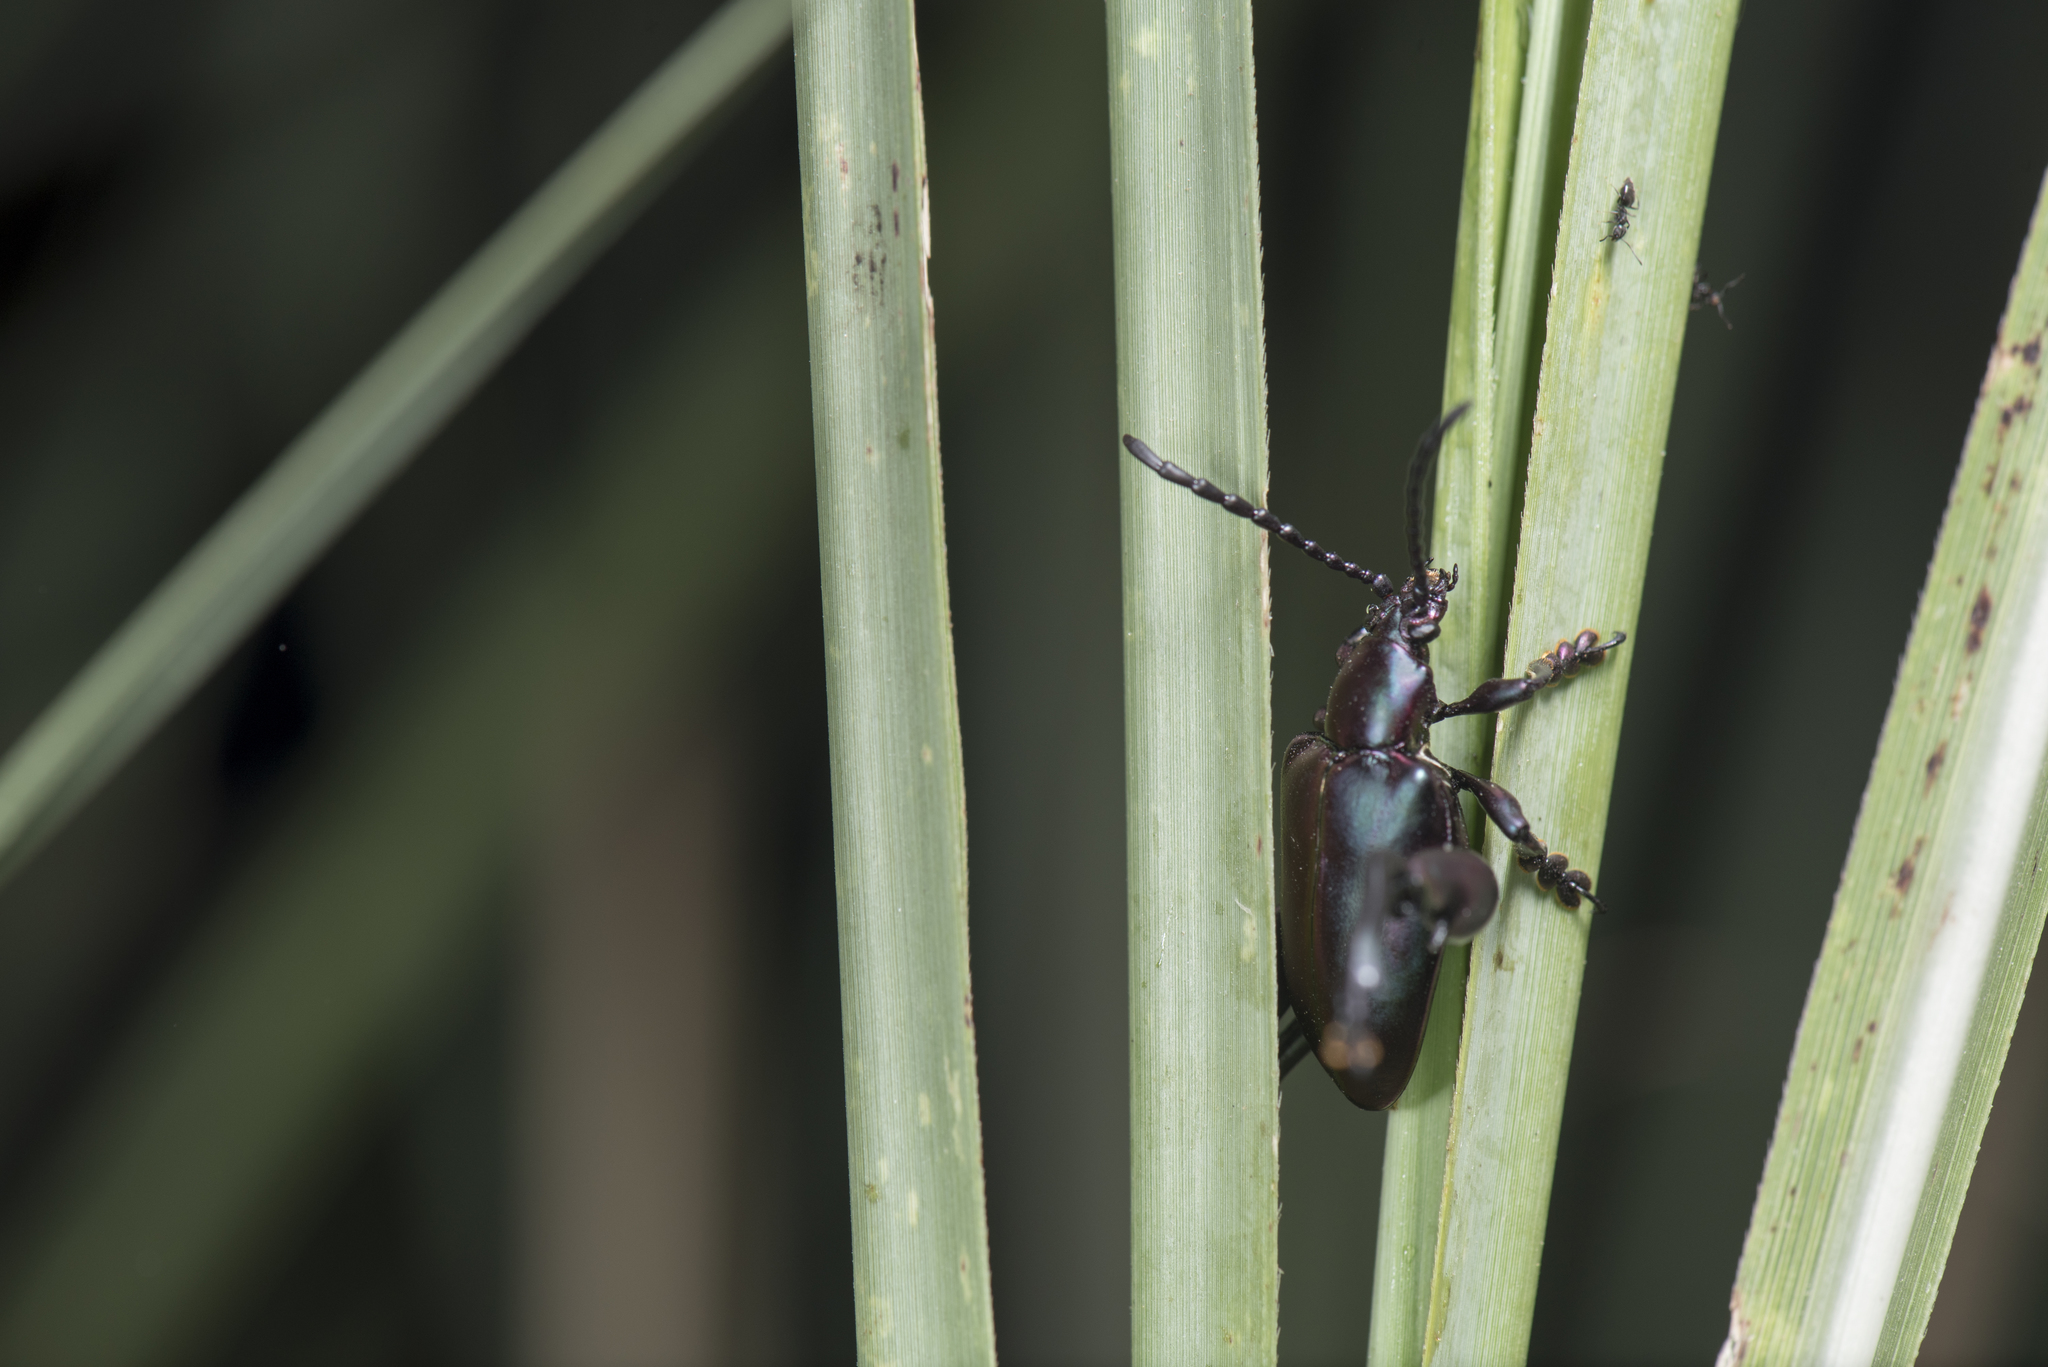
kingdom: Animalia
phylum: Arthropoda
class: Insecta
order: Coleoptera
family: Chrysomelidae
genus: Sagra
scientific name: Sagra femorata
